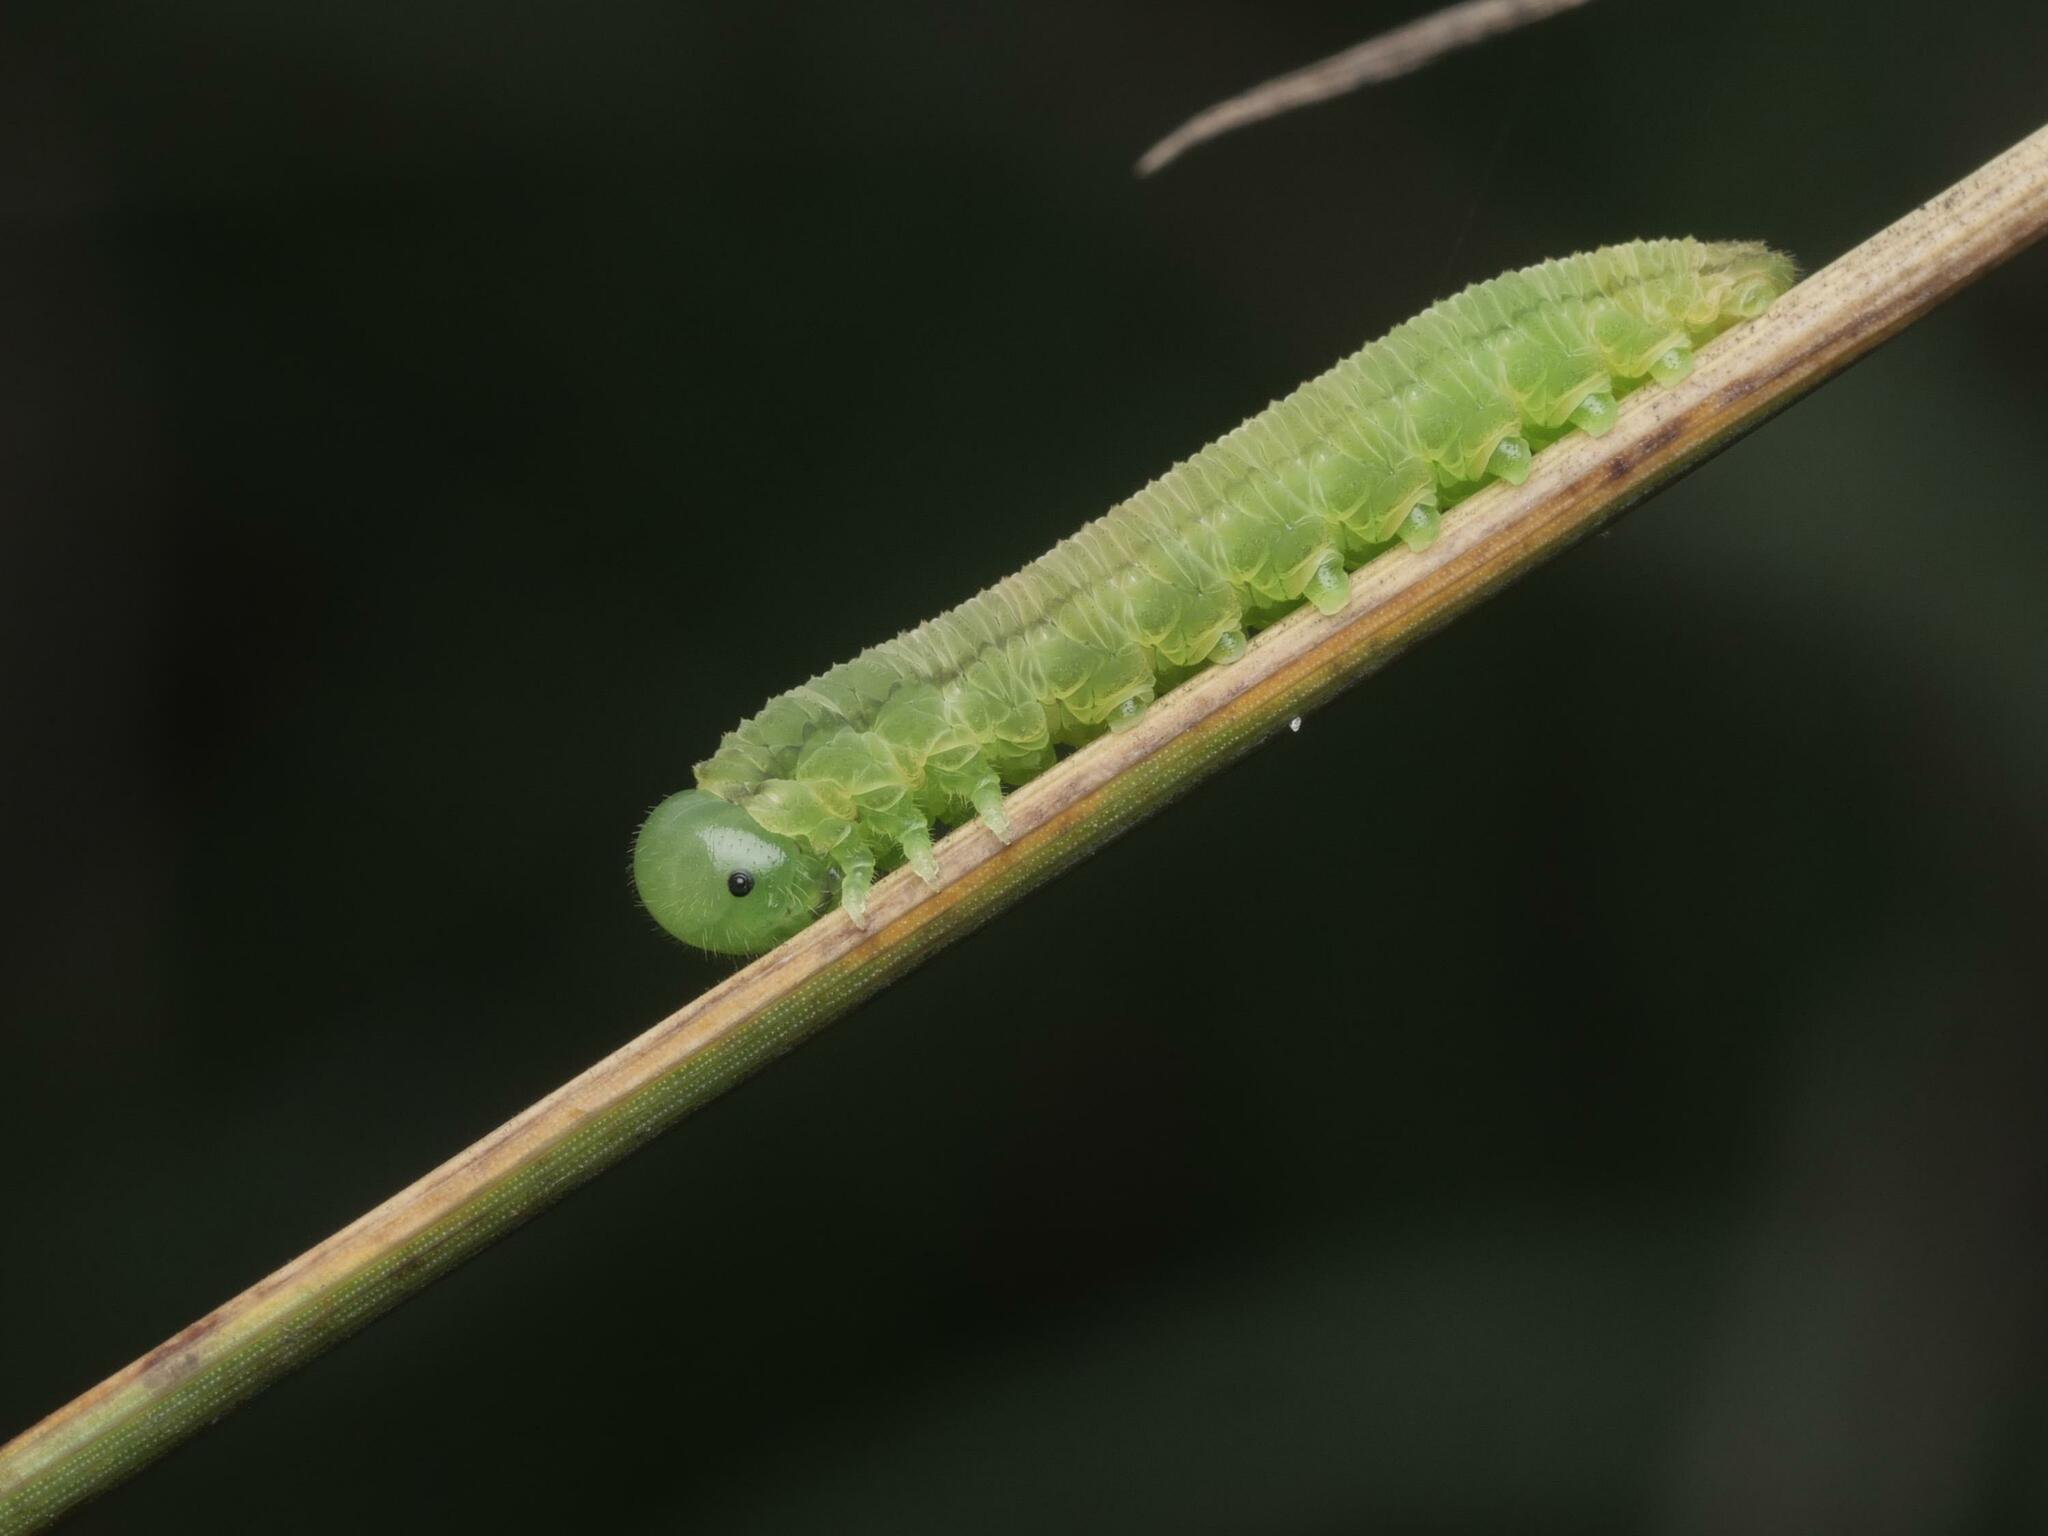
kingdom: Animalia
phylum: Arthropoda
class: Insecta
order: Hymenoptera
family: Tenthredinidae
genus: Tenthredopsis
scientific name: Tenthredopsis friesei
